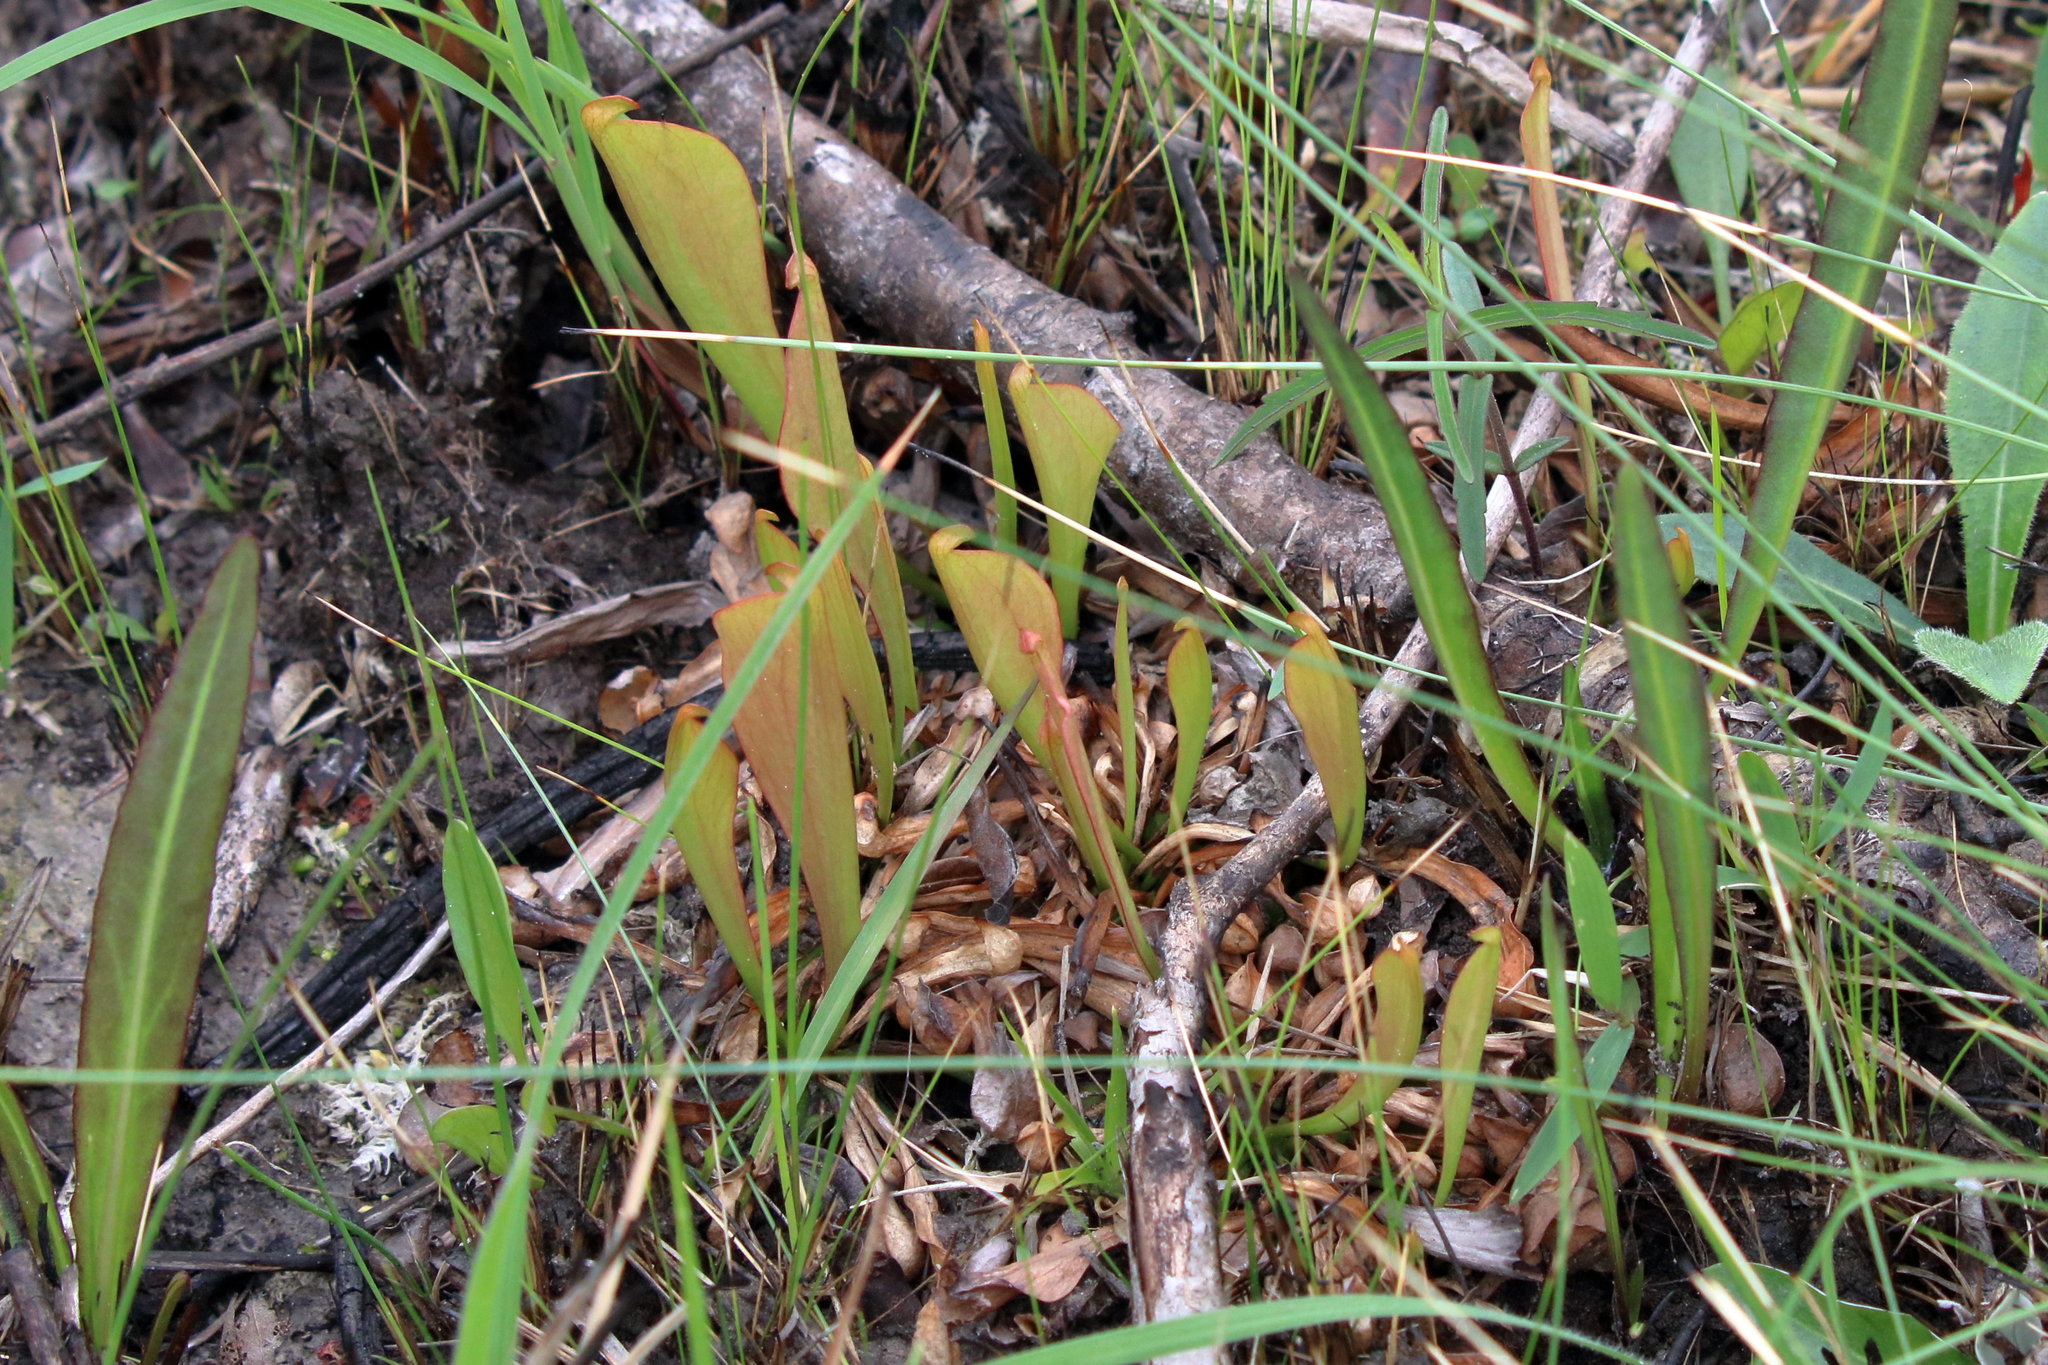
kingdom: Plantae
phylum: Tracheophyta
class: Magnoliopsida
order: Ericales
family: Sarraceniaceae
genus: Sarracenia
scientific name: Sarracenia psittacina
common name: Parrot pitcherplant
